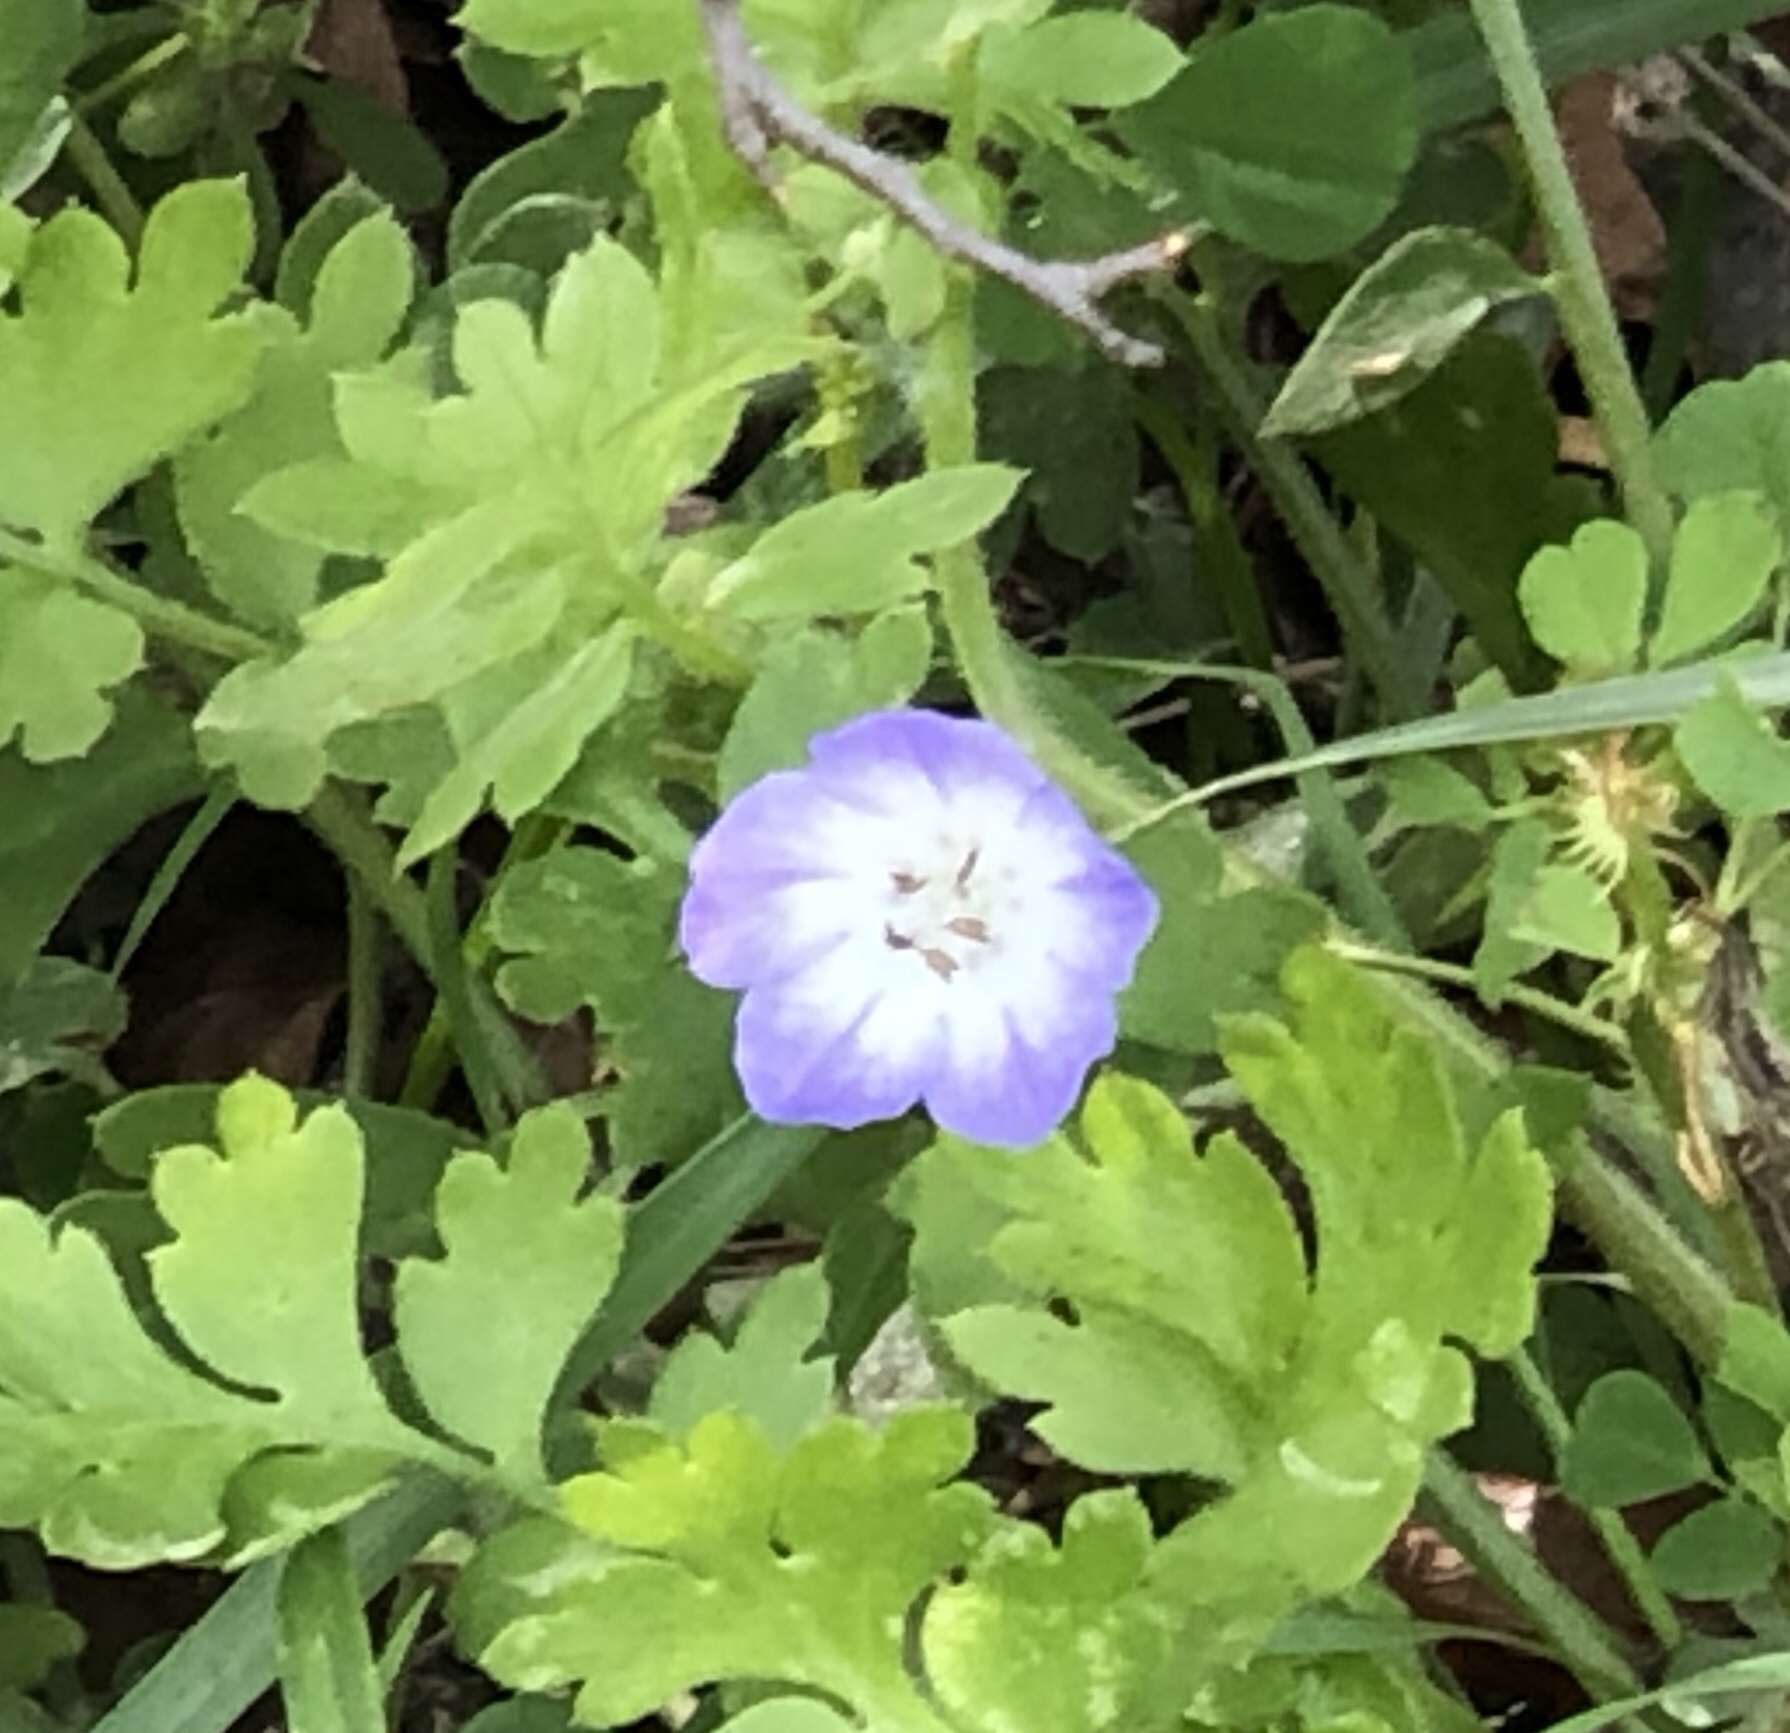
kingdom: Plantae
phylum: Tracheophyta
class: Magnoliopsida
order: Boraginales
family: Hydrophyllaceae
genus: Nemophila
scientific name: Nemophila phacelioides
